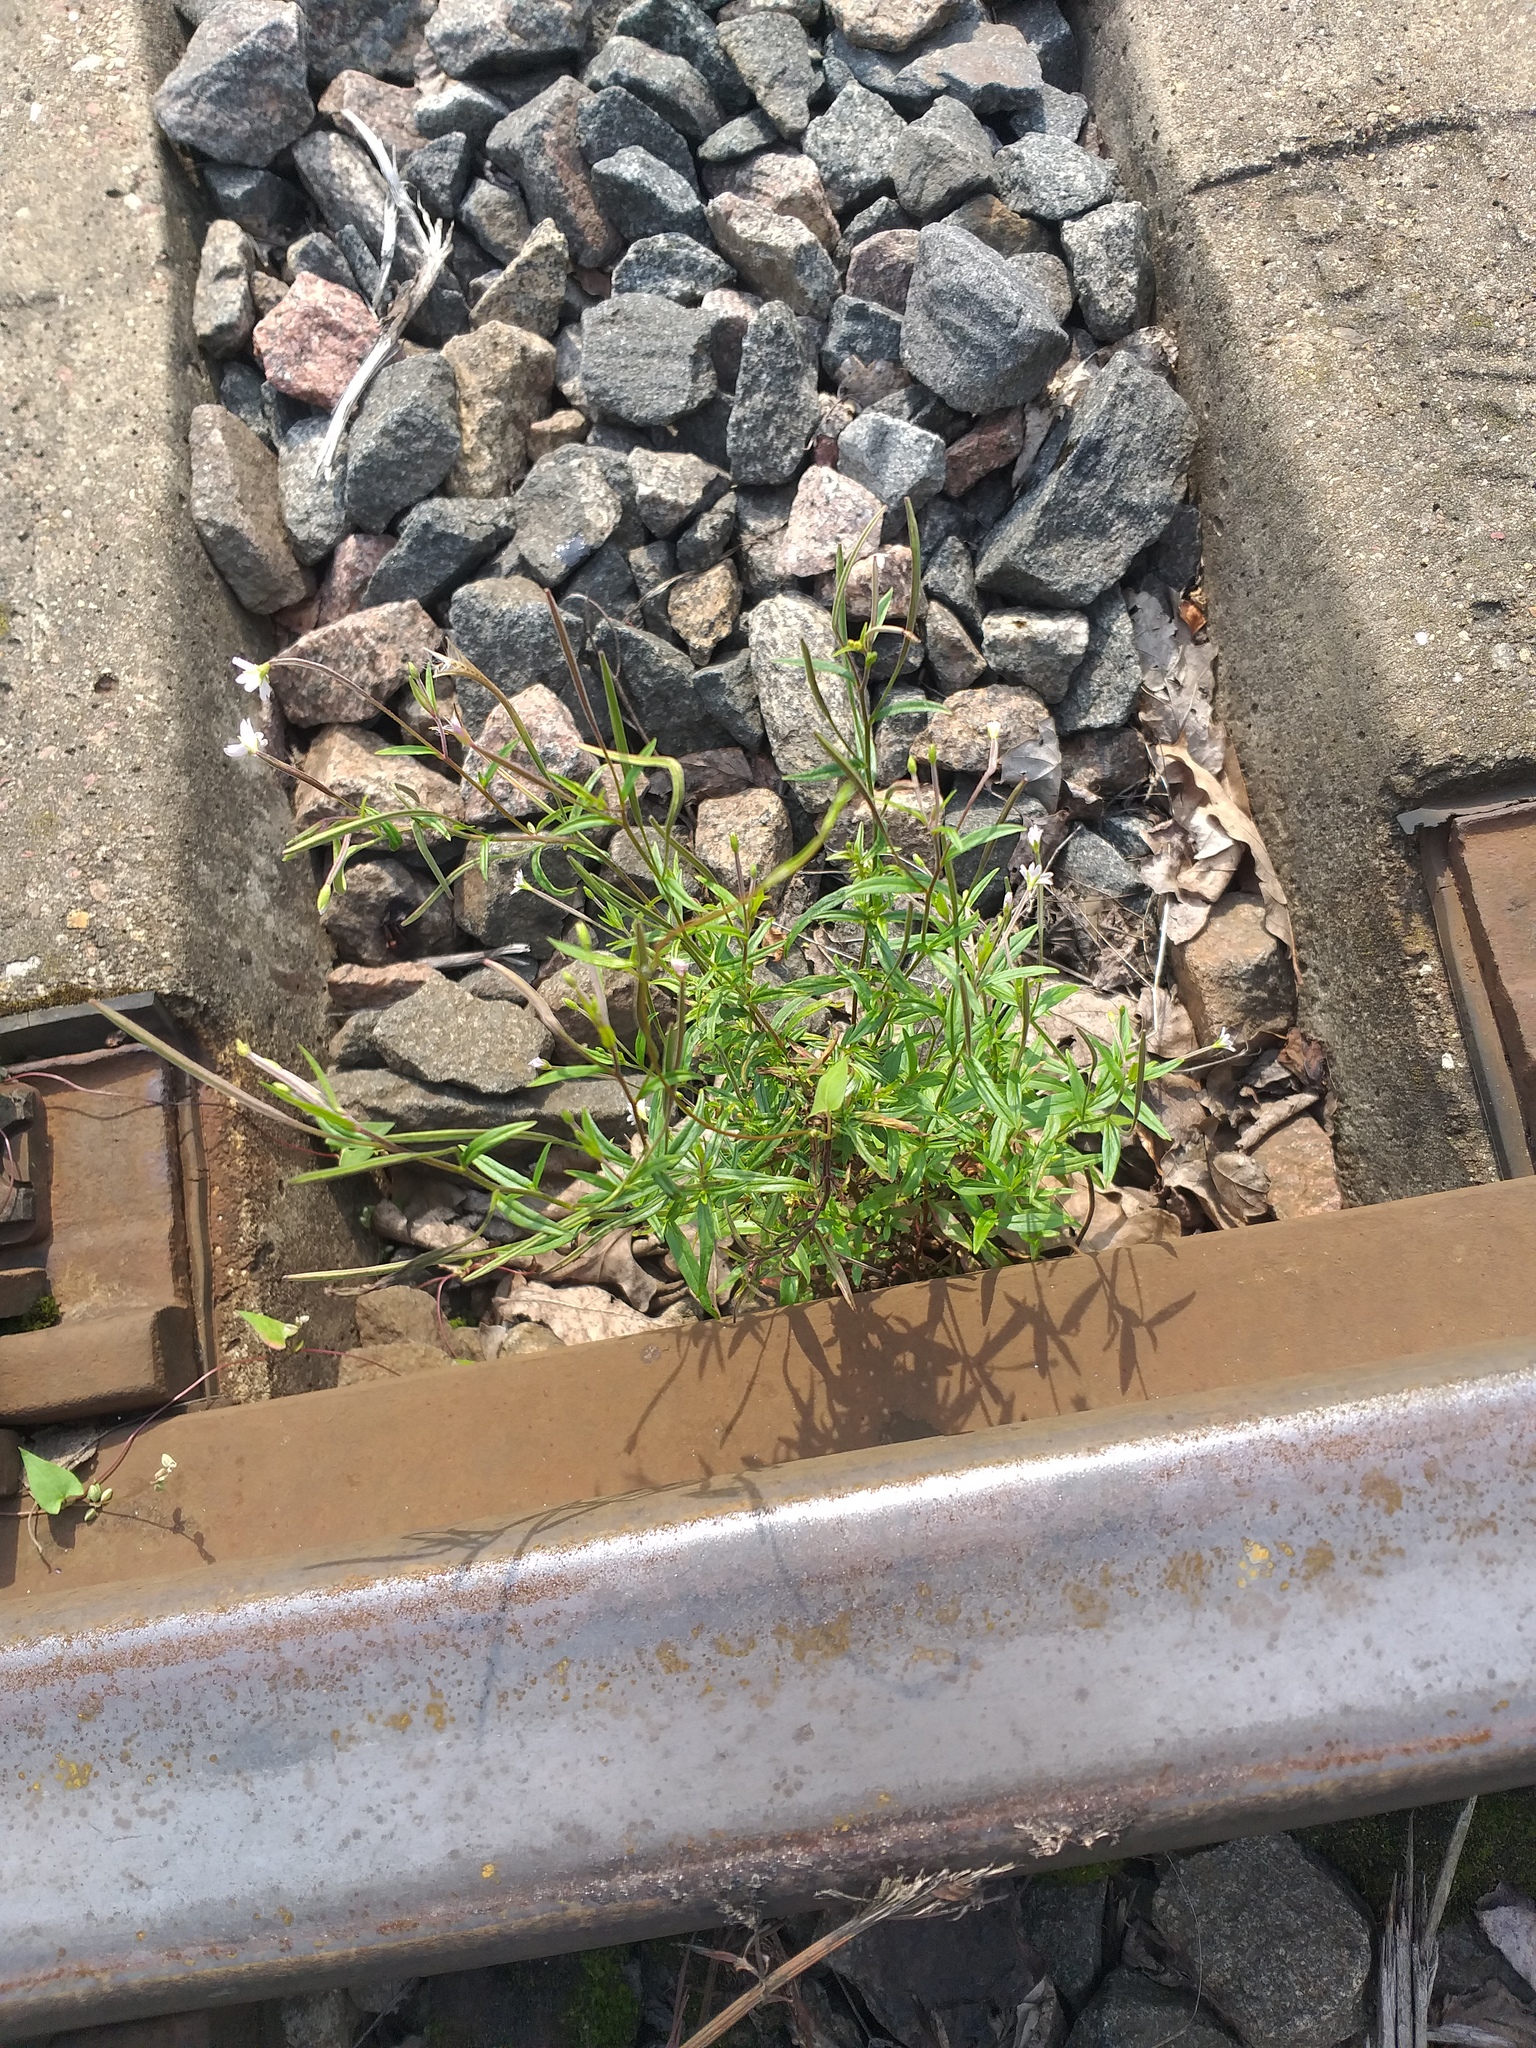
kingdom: Plantae
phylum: Tracheophyta
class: Magnoliopsida
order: Myrtales
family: Onagraceae
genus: Epilobium
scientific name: Epilobium palustre
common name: Marsh willowherb
